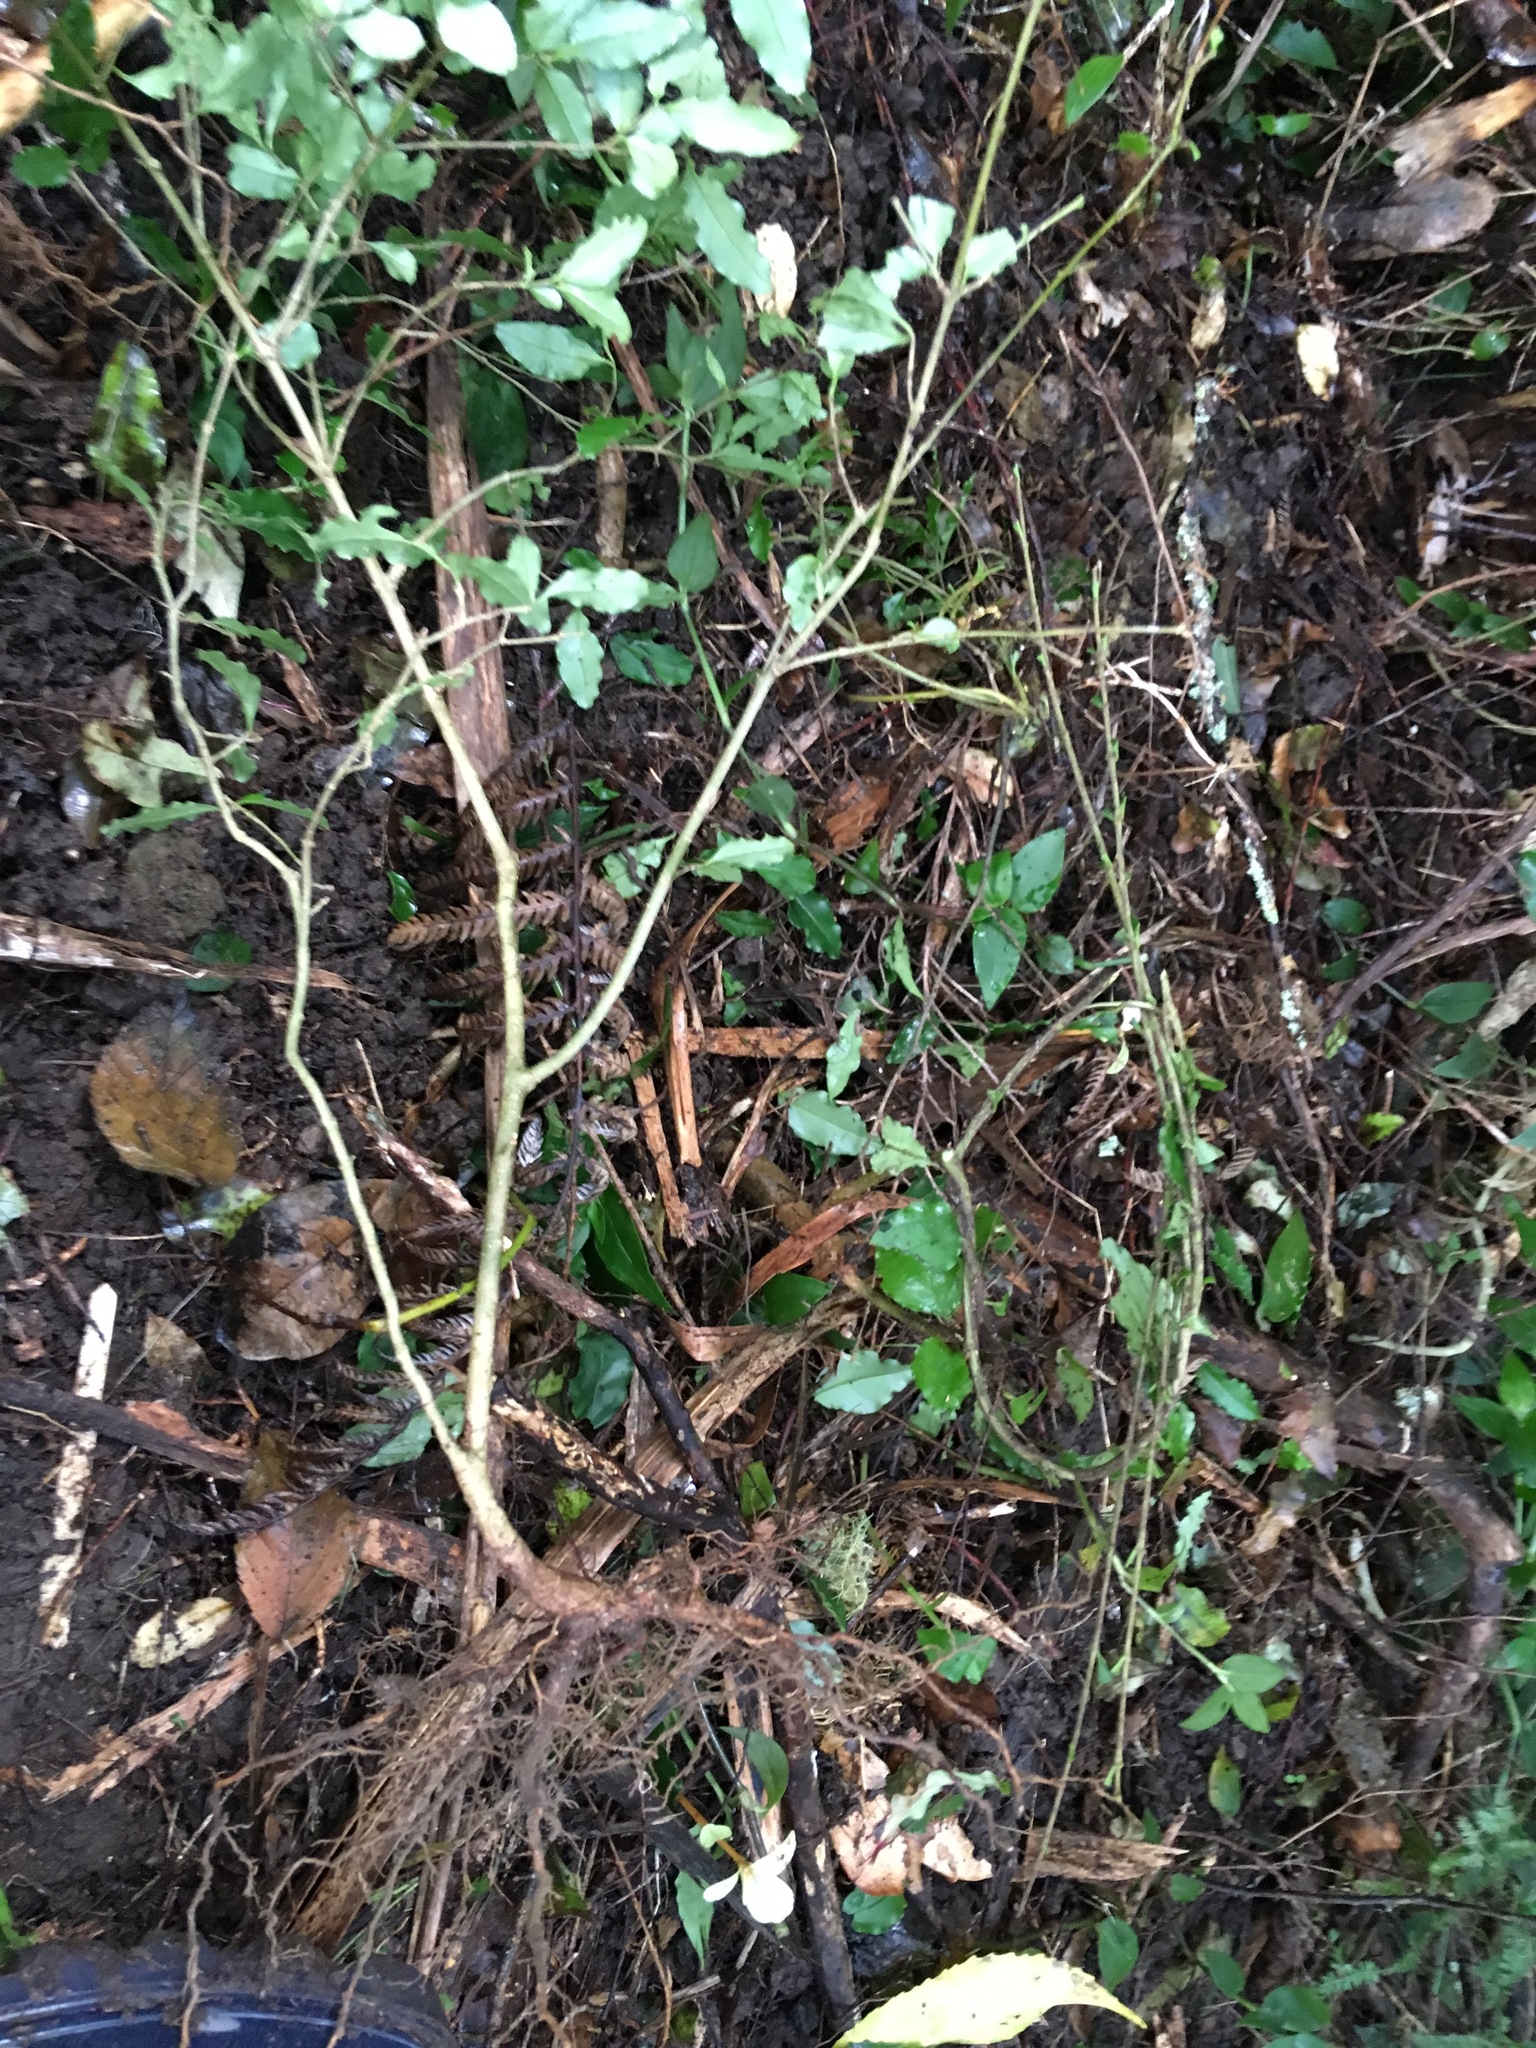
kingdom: Plantae
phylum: Tracheophyta
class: Magnoliopsida
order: Lamiales
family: Oleaceae
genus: Ligustrum
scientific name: Ligustrum sinense
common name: Chinese privet
